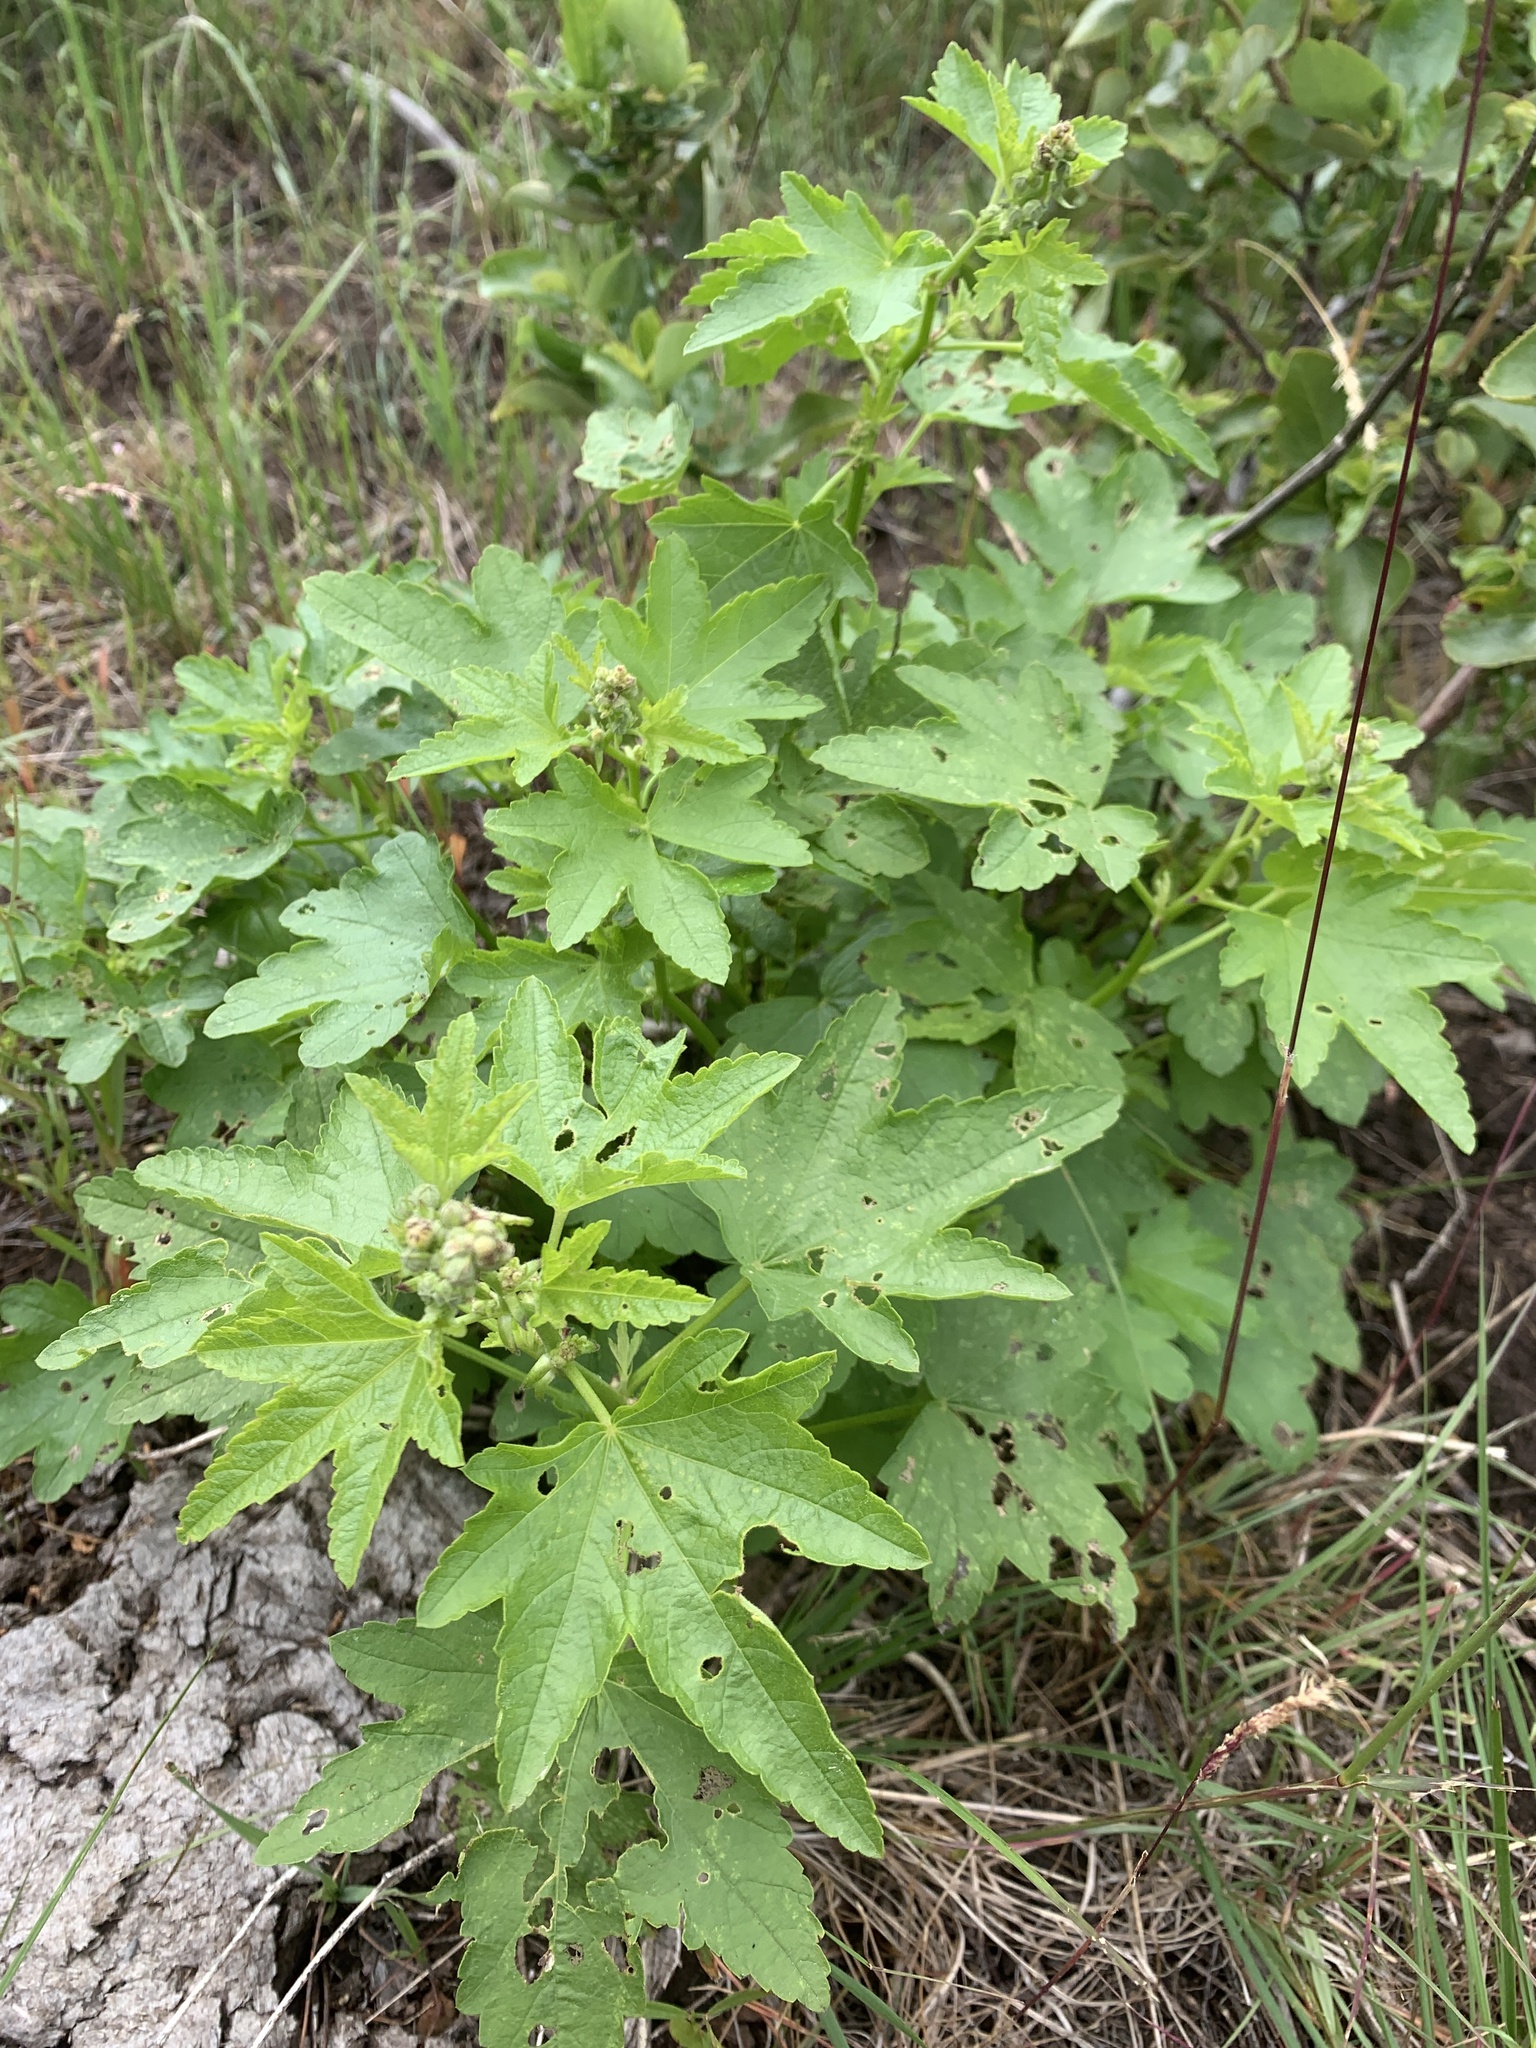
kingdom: Plantae
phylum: Tracheophyta
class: Magnoliopsida
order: Malvales
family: Malvaceae
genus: Iliamna
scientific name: Iliamna rivularis
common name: Wild hollyhock
